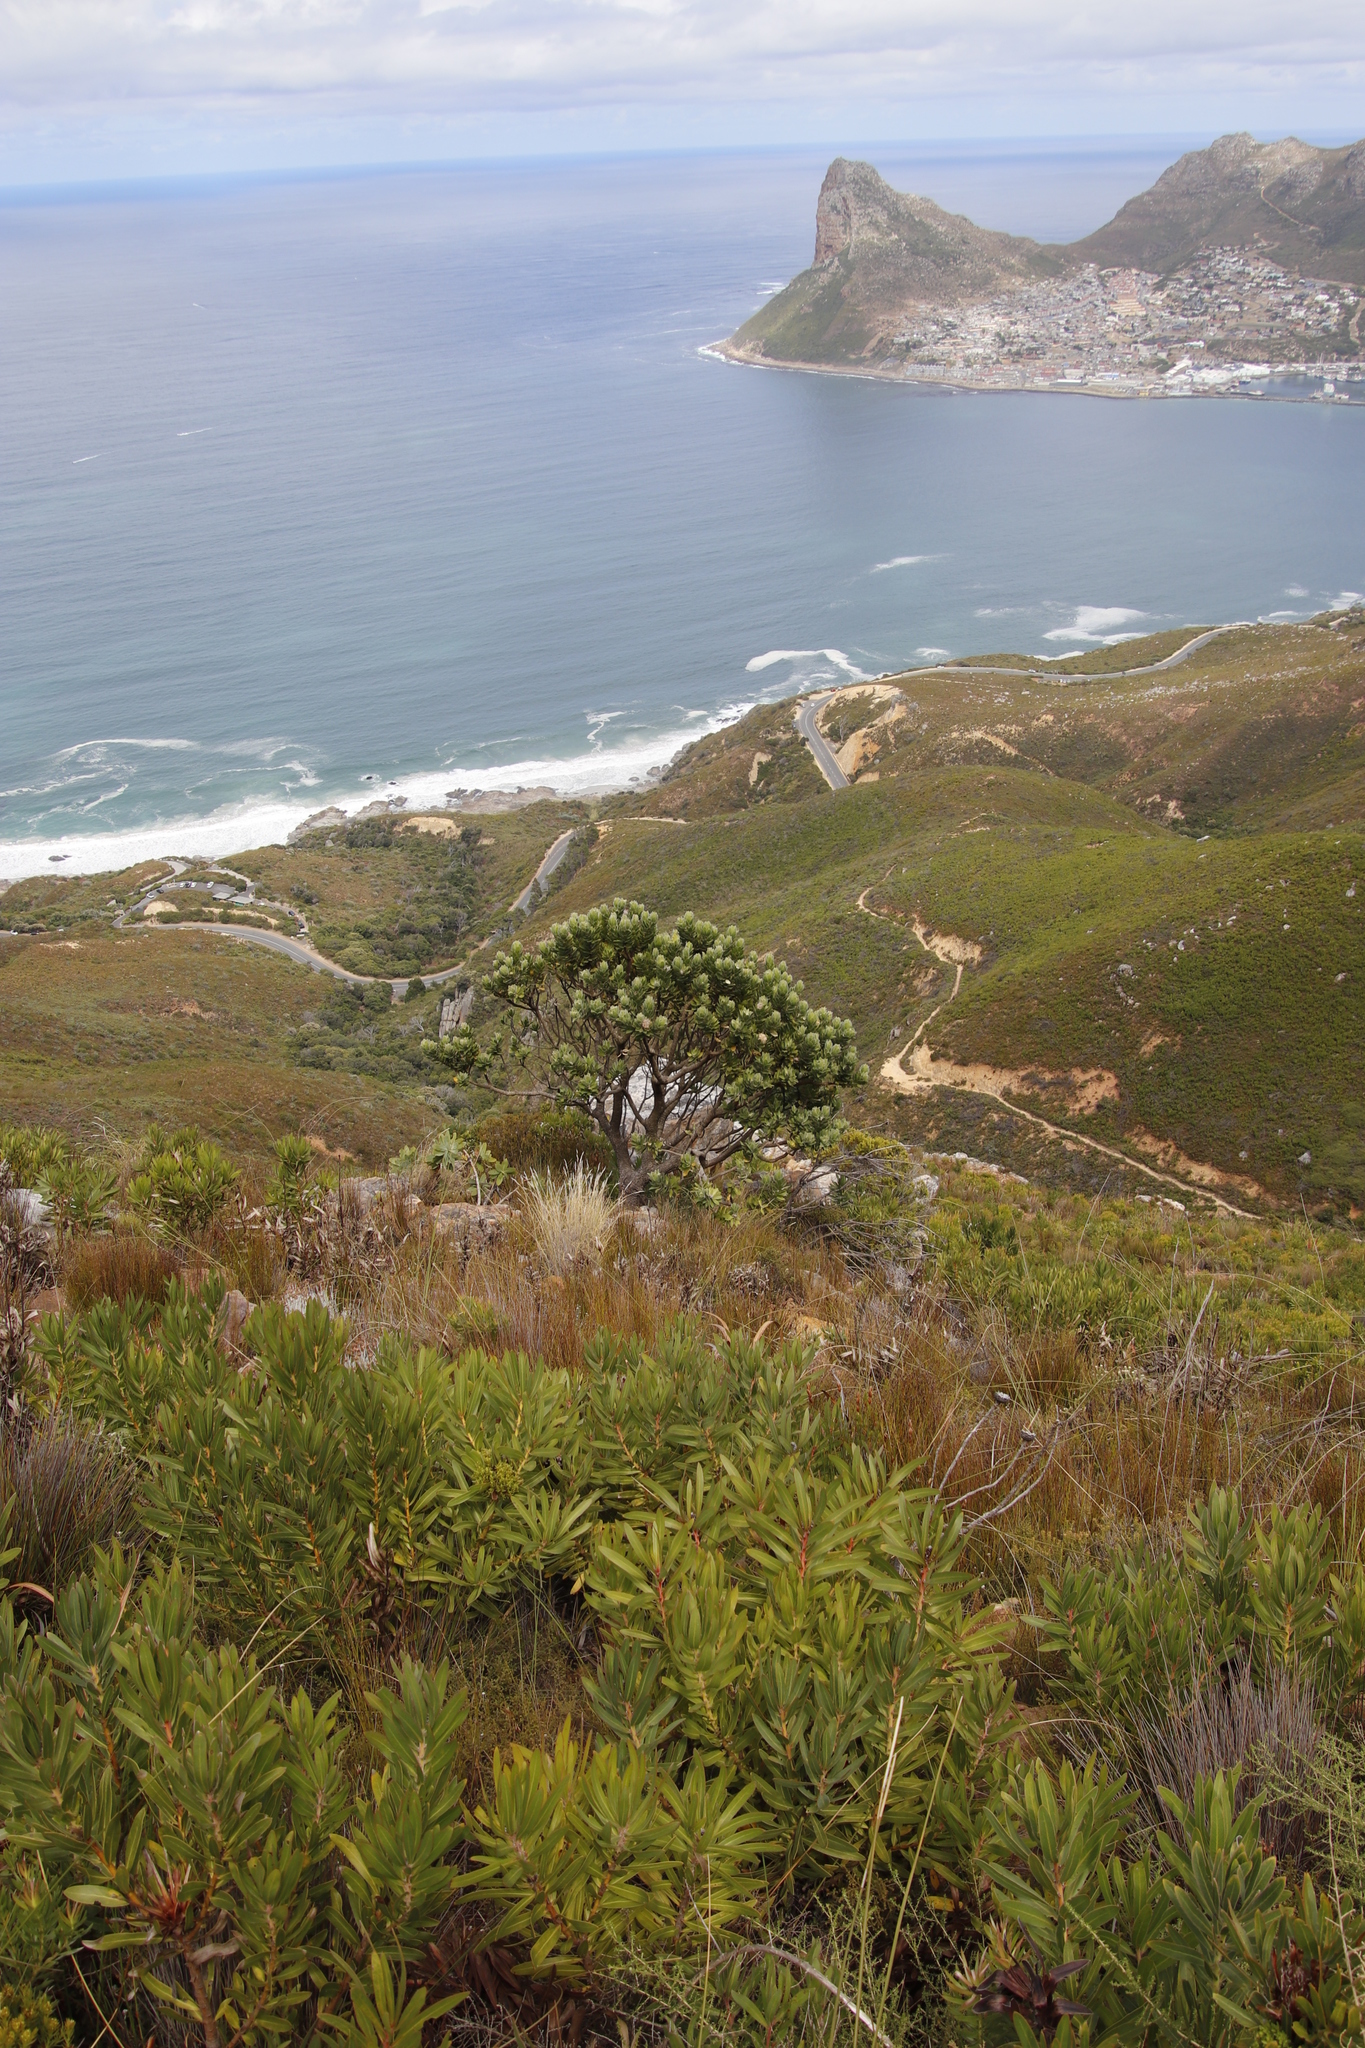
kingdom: Plantae
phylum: Tracheophyta
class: Magnoliopsida
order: Proteales
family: Proteaceae
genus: Leucospermum
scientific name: Leucospermum conocarpodendron
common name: Tree pincushion
